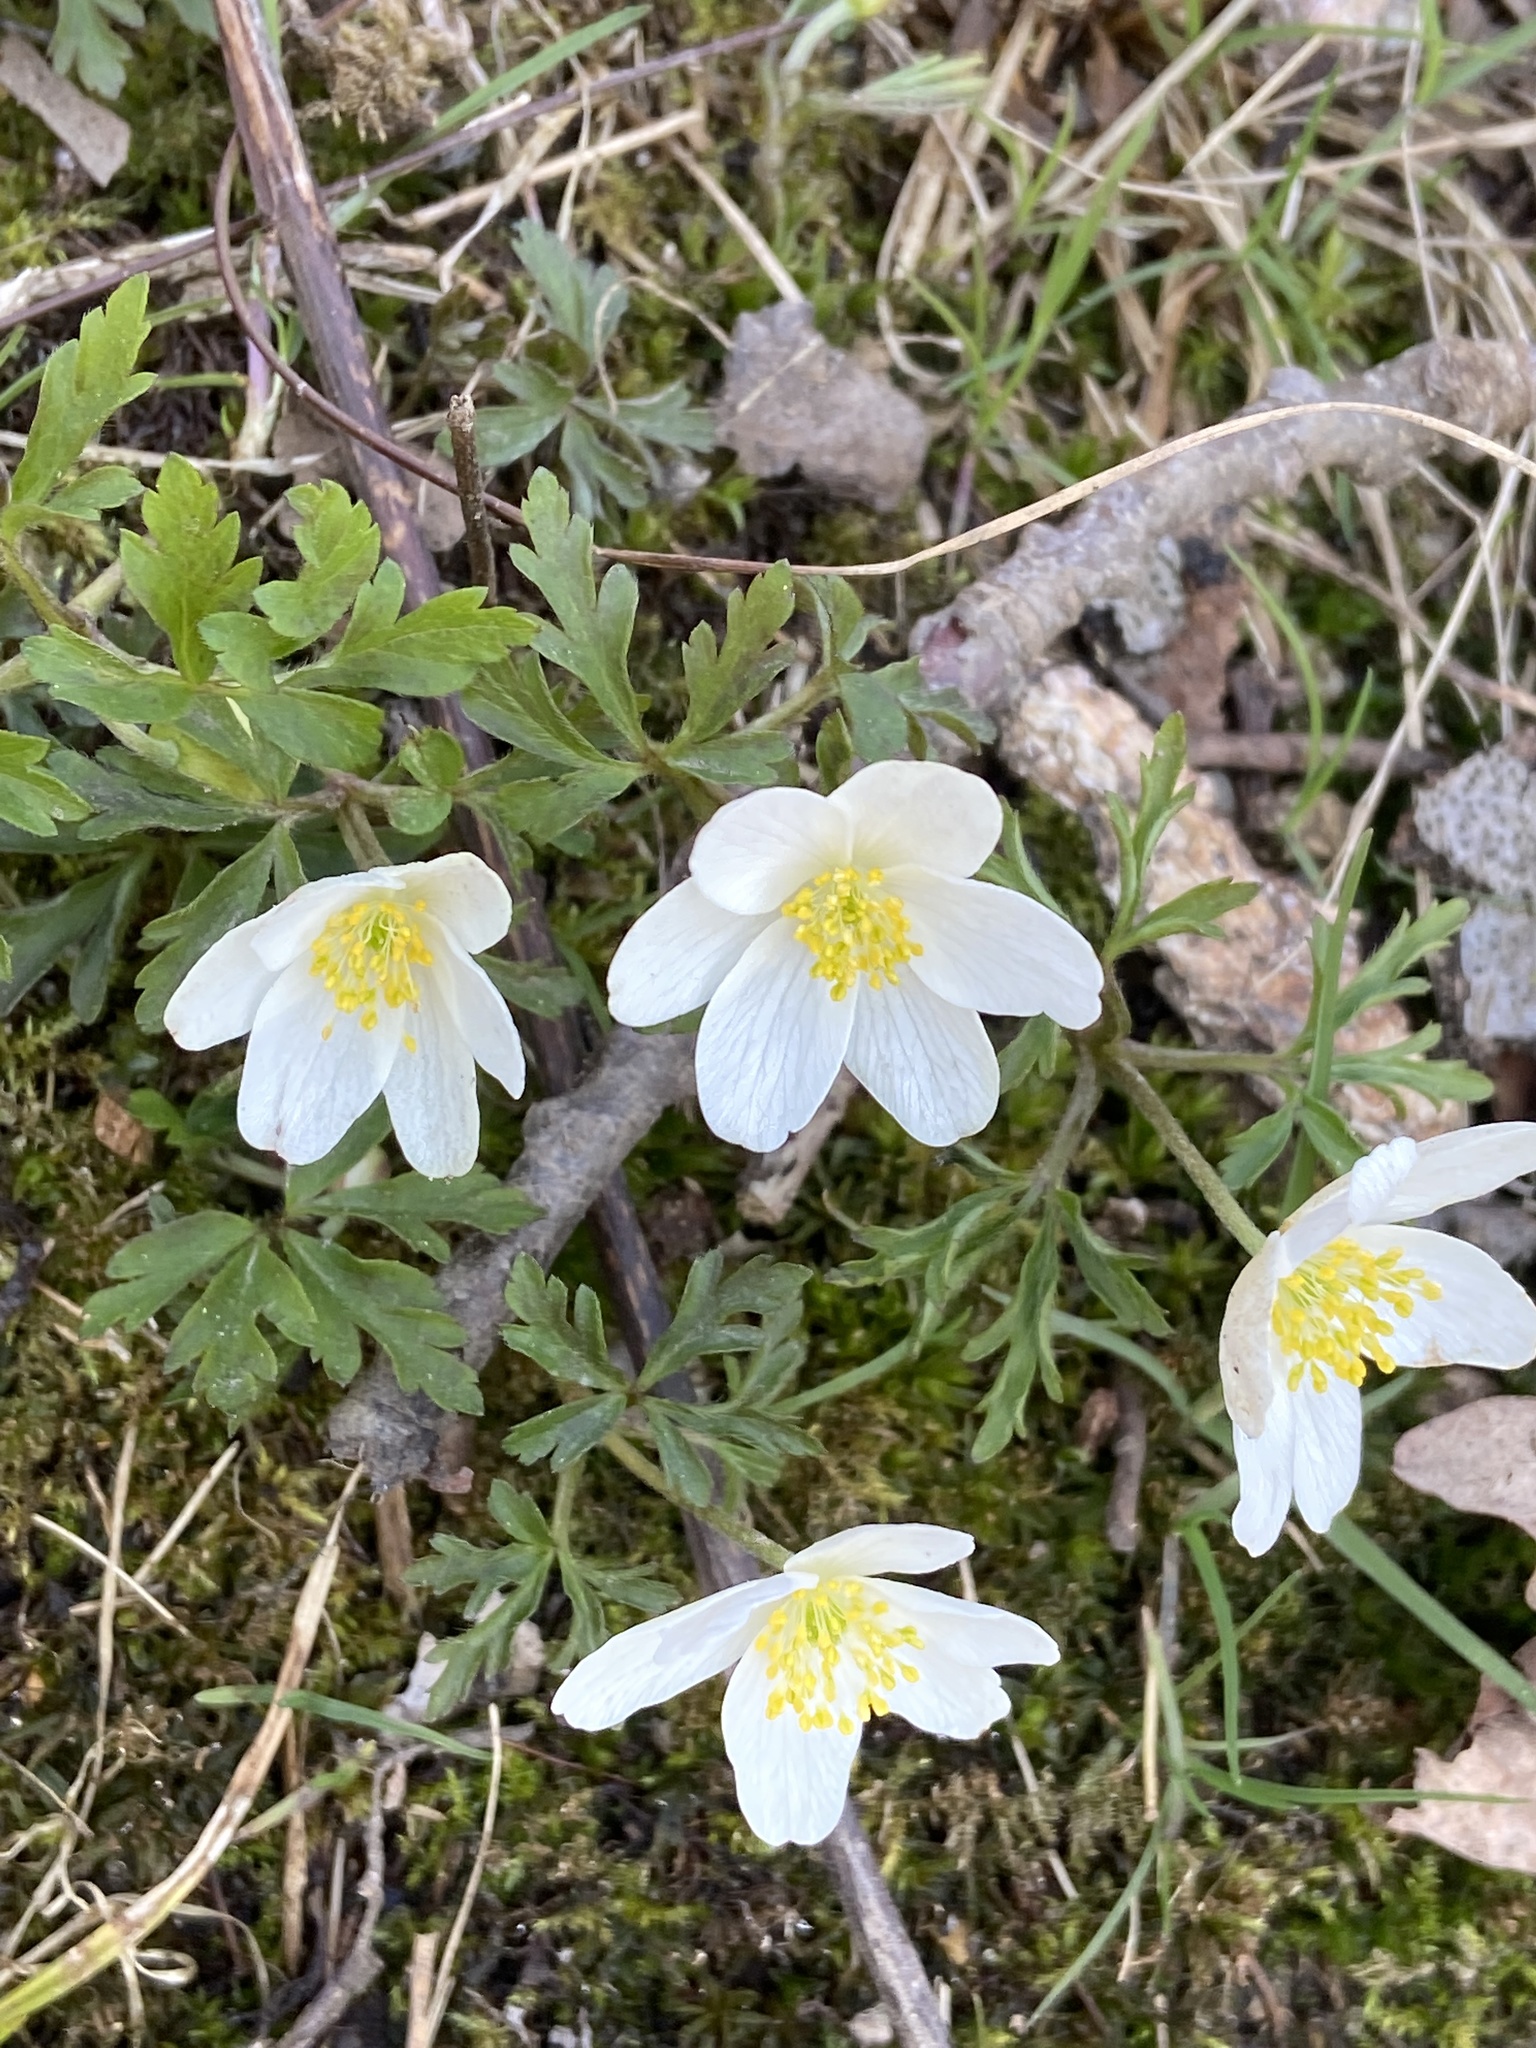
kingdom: Plantae
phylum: Tracheophyta
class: Magnoliopsida
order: Ranunculales
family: Ranunculaceae
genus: Anemone
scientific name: Anemone nemorosa
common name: Wood anemone
